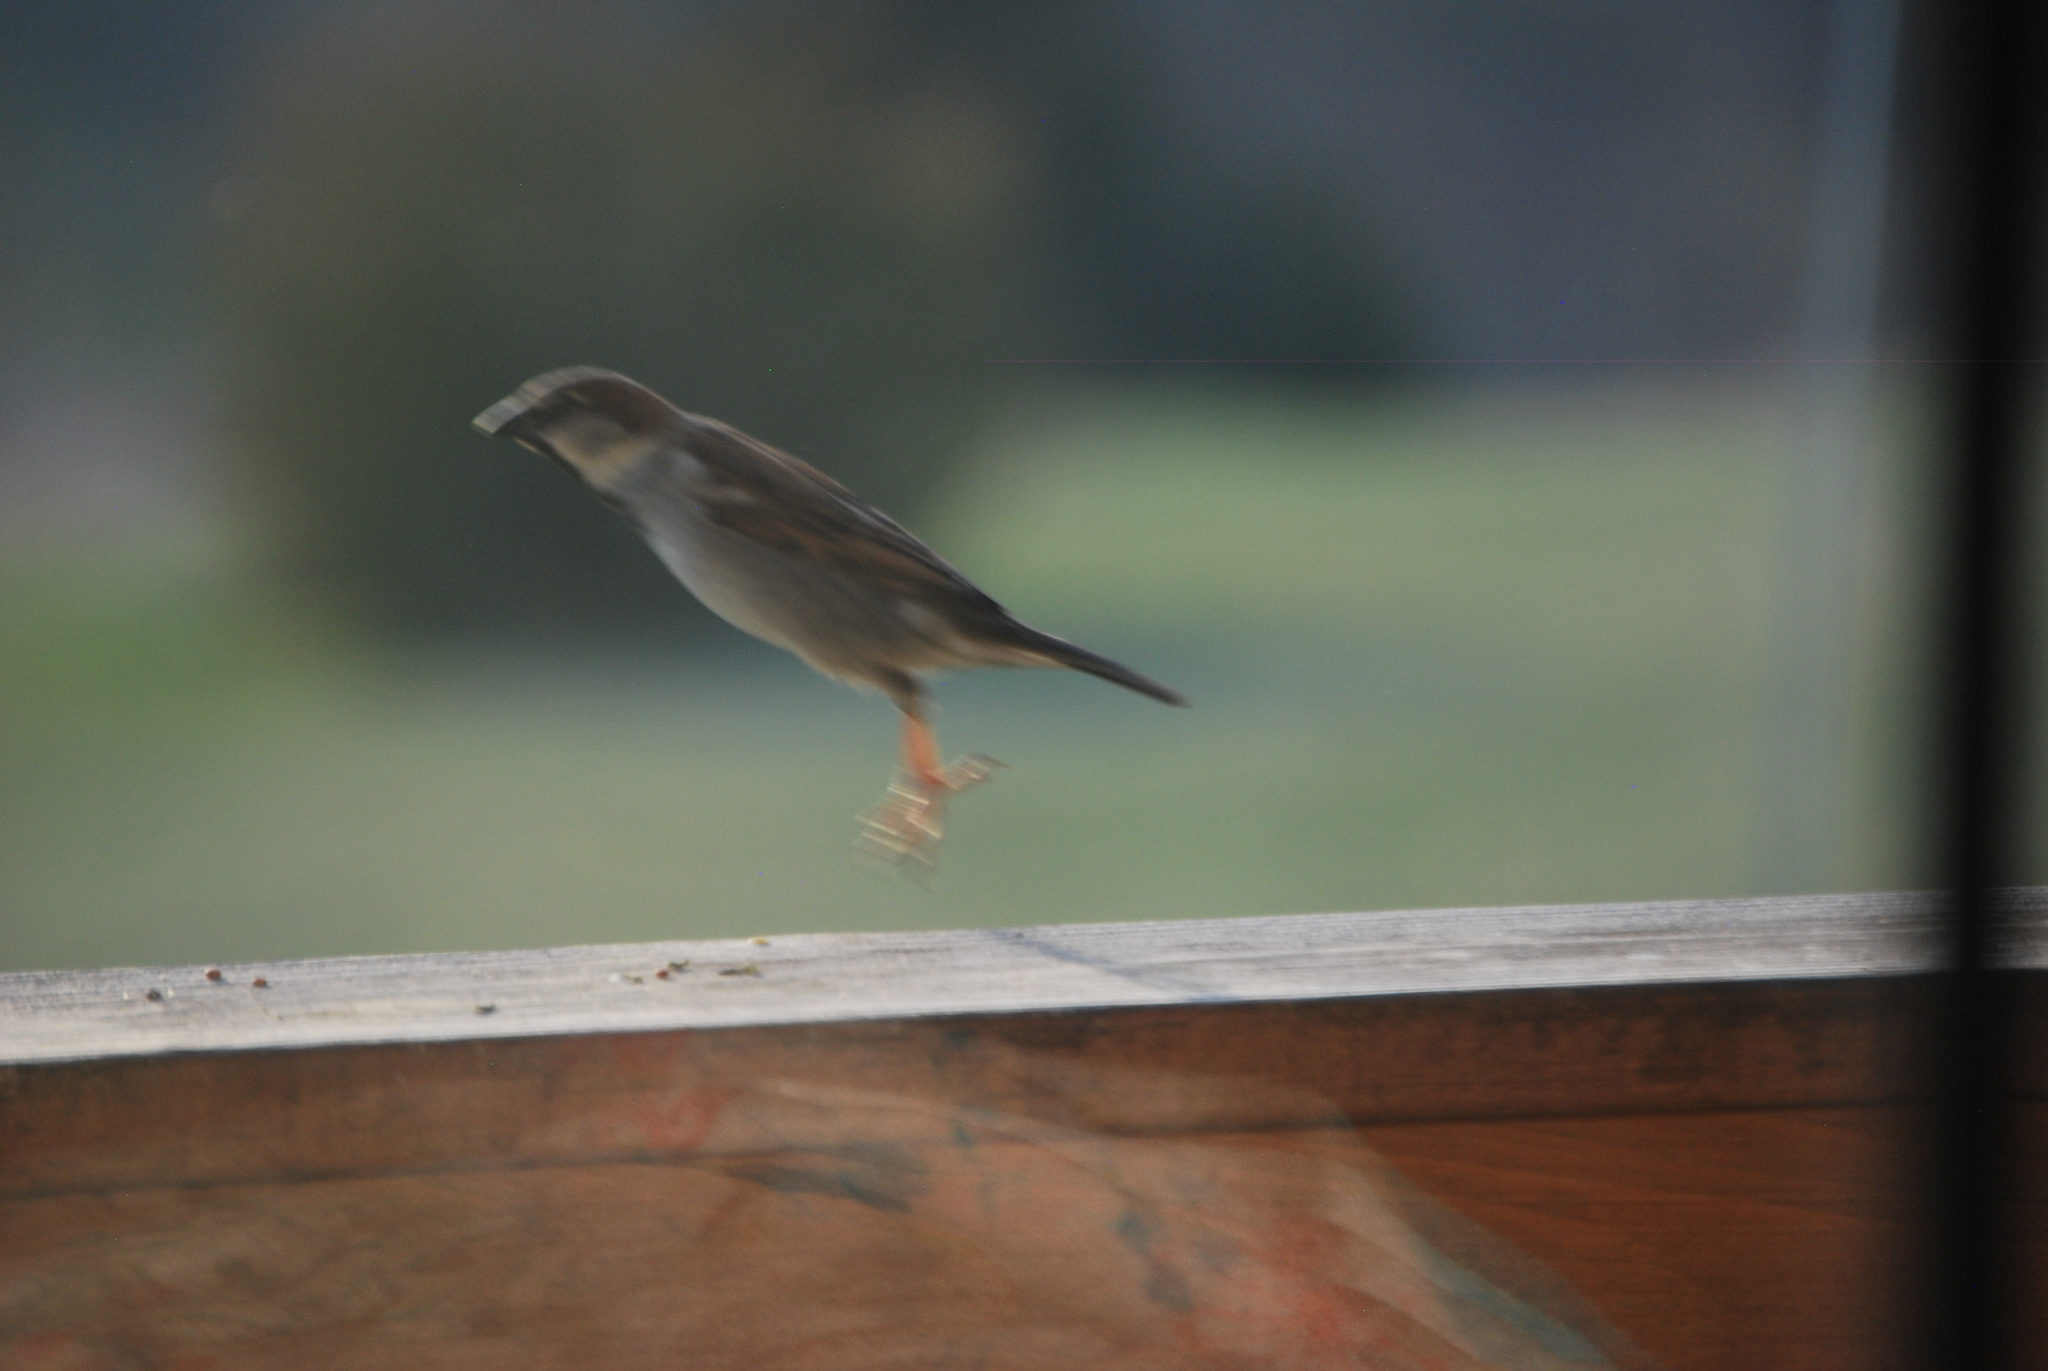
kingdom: Animalia
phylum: Chordata
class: Aves
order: Passeriformes
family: Passeridae
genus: Passer
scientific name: Passer domesticus
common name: House sparrow
